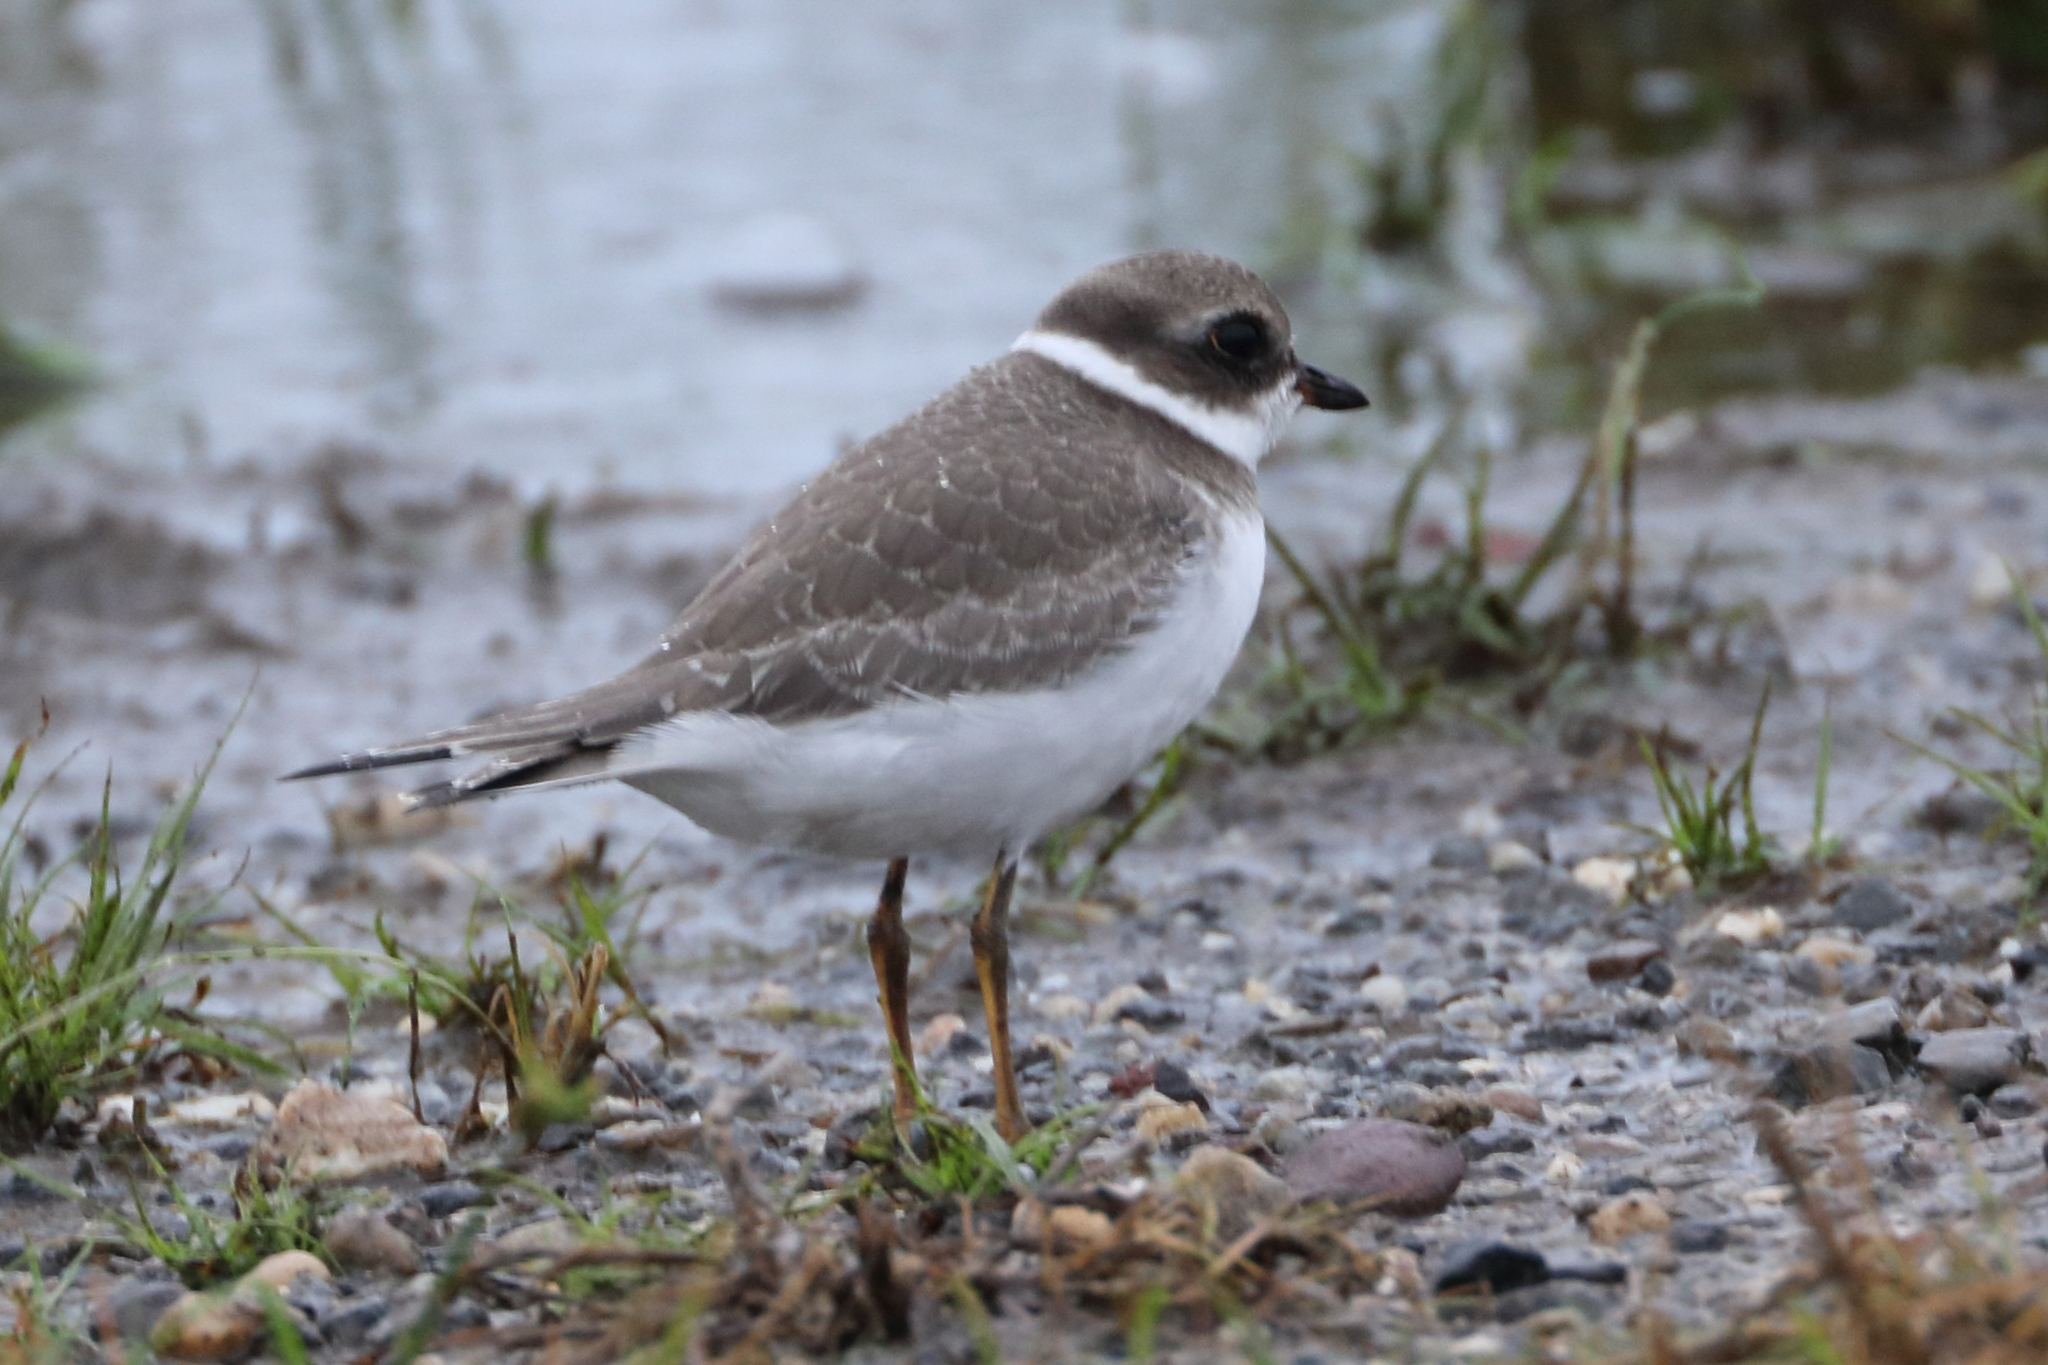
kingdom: Animalia
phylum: Chordata
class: Aves
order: Charadriiformes
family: Charadriidae
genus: Charadrius
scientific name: Charadrius semipalmatus
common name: Semipalmated plover
